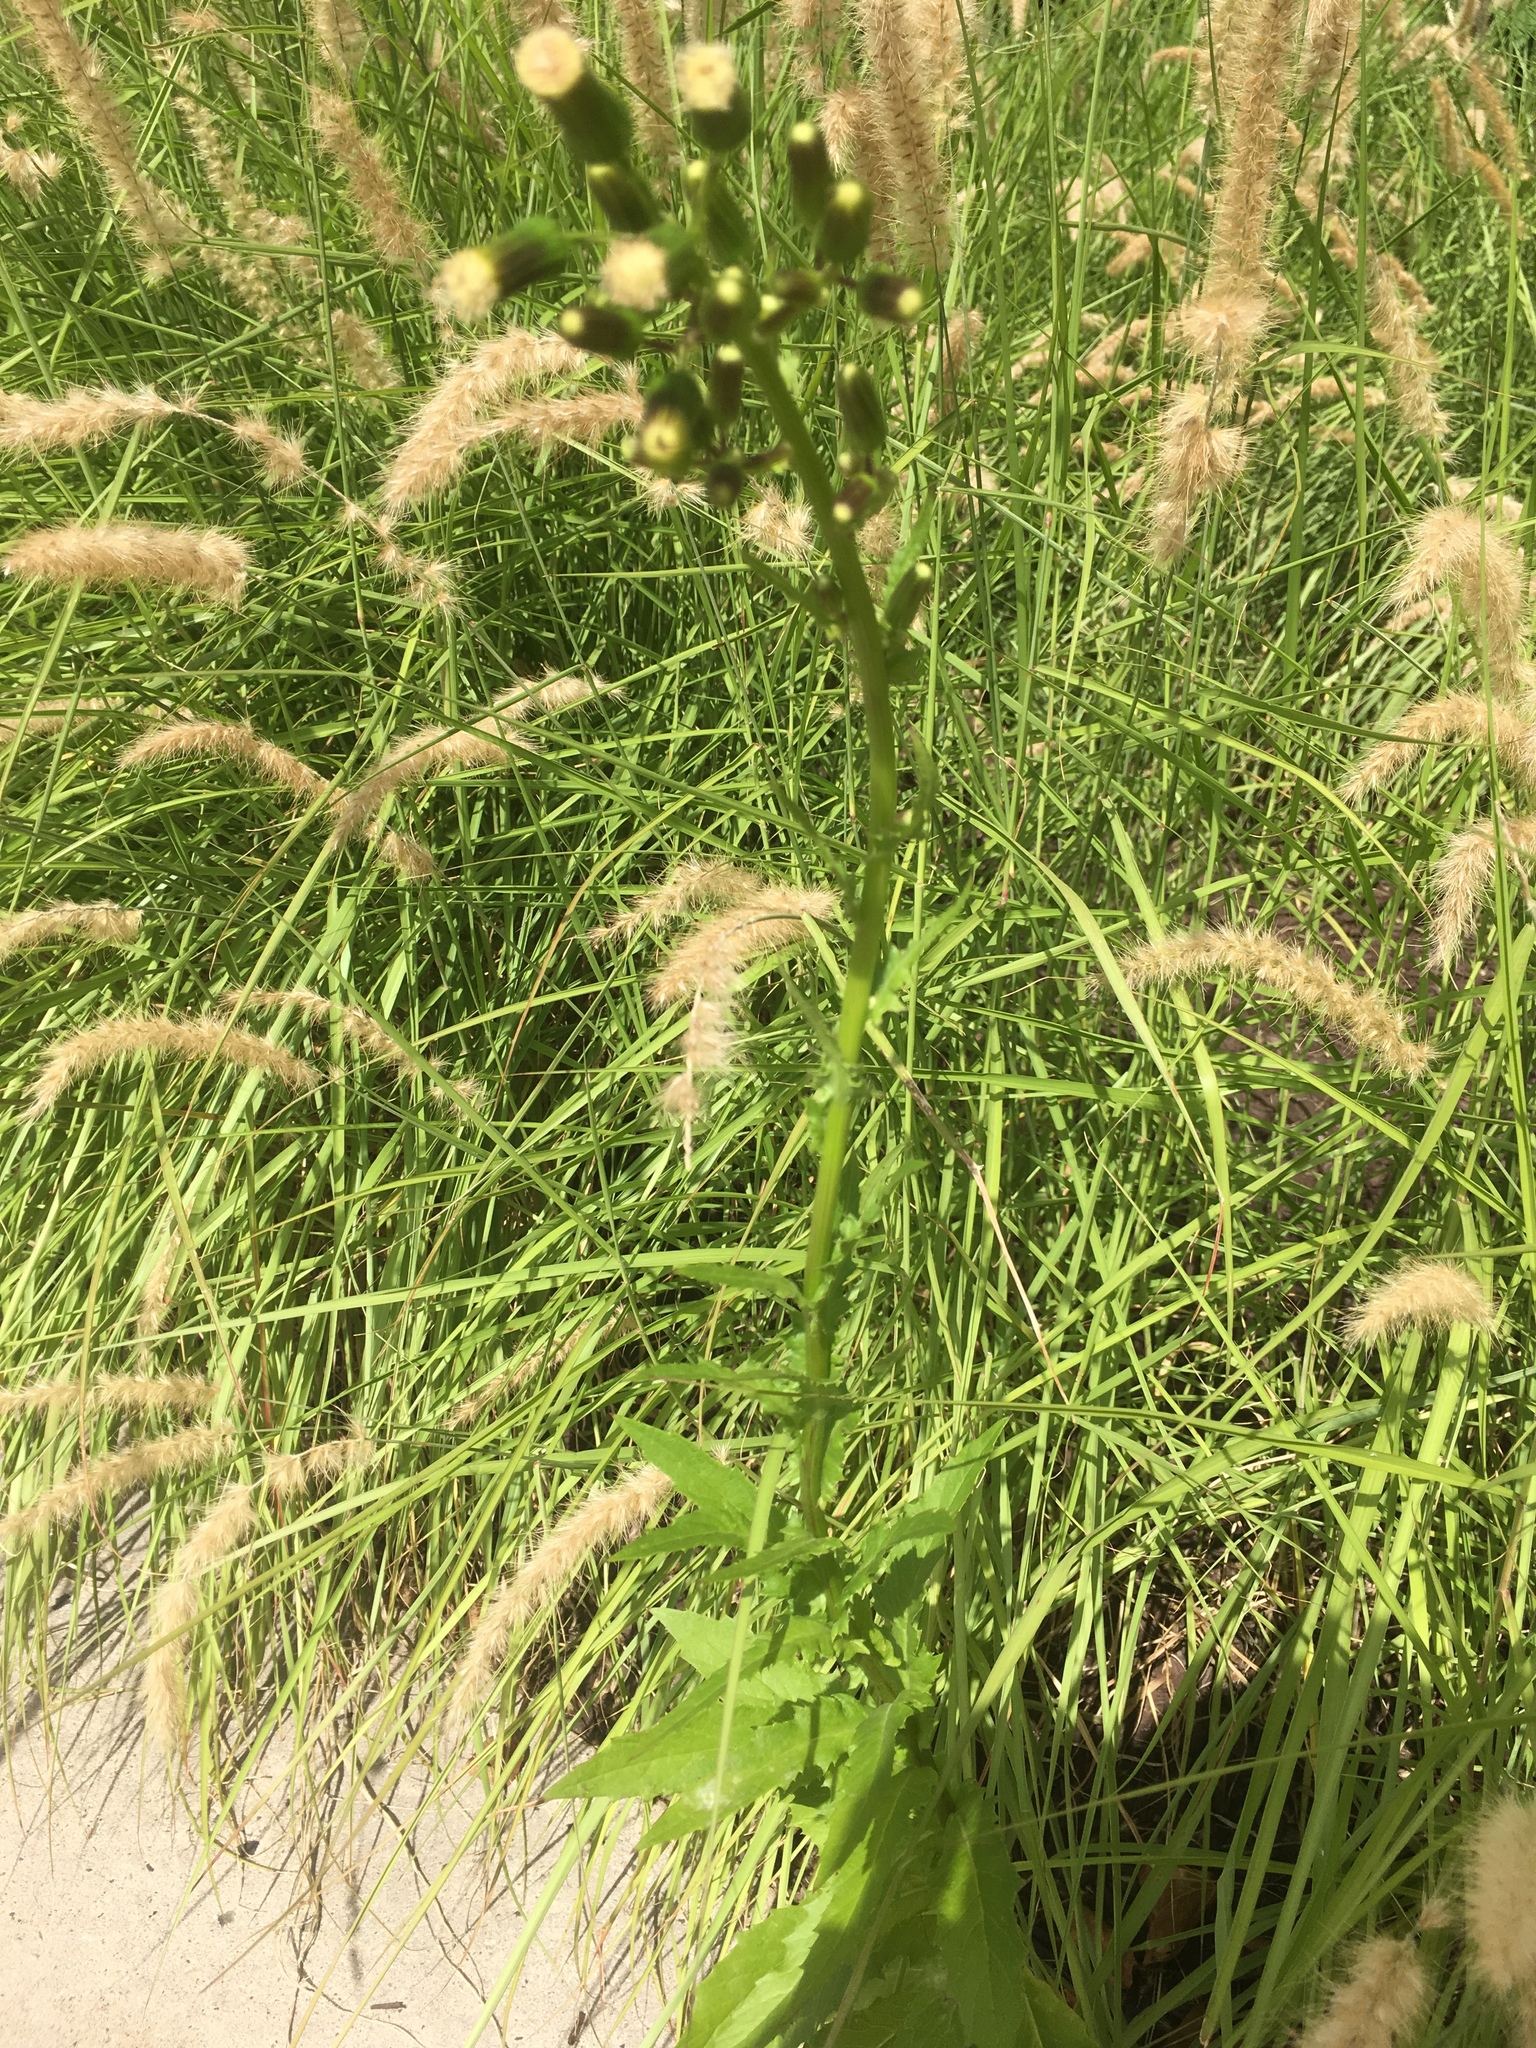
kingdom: Plantae
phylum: Tracheophyta
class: Magnoliopsida
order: Asterales
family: Asteraceae
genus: Erechtites
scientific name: Erechtites hieraciifolius
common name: American burnweed
